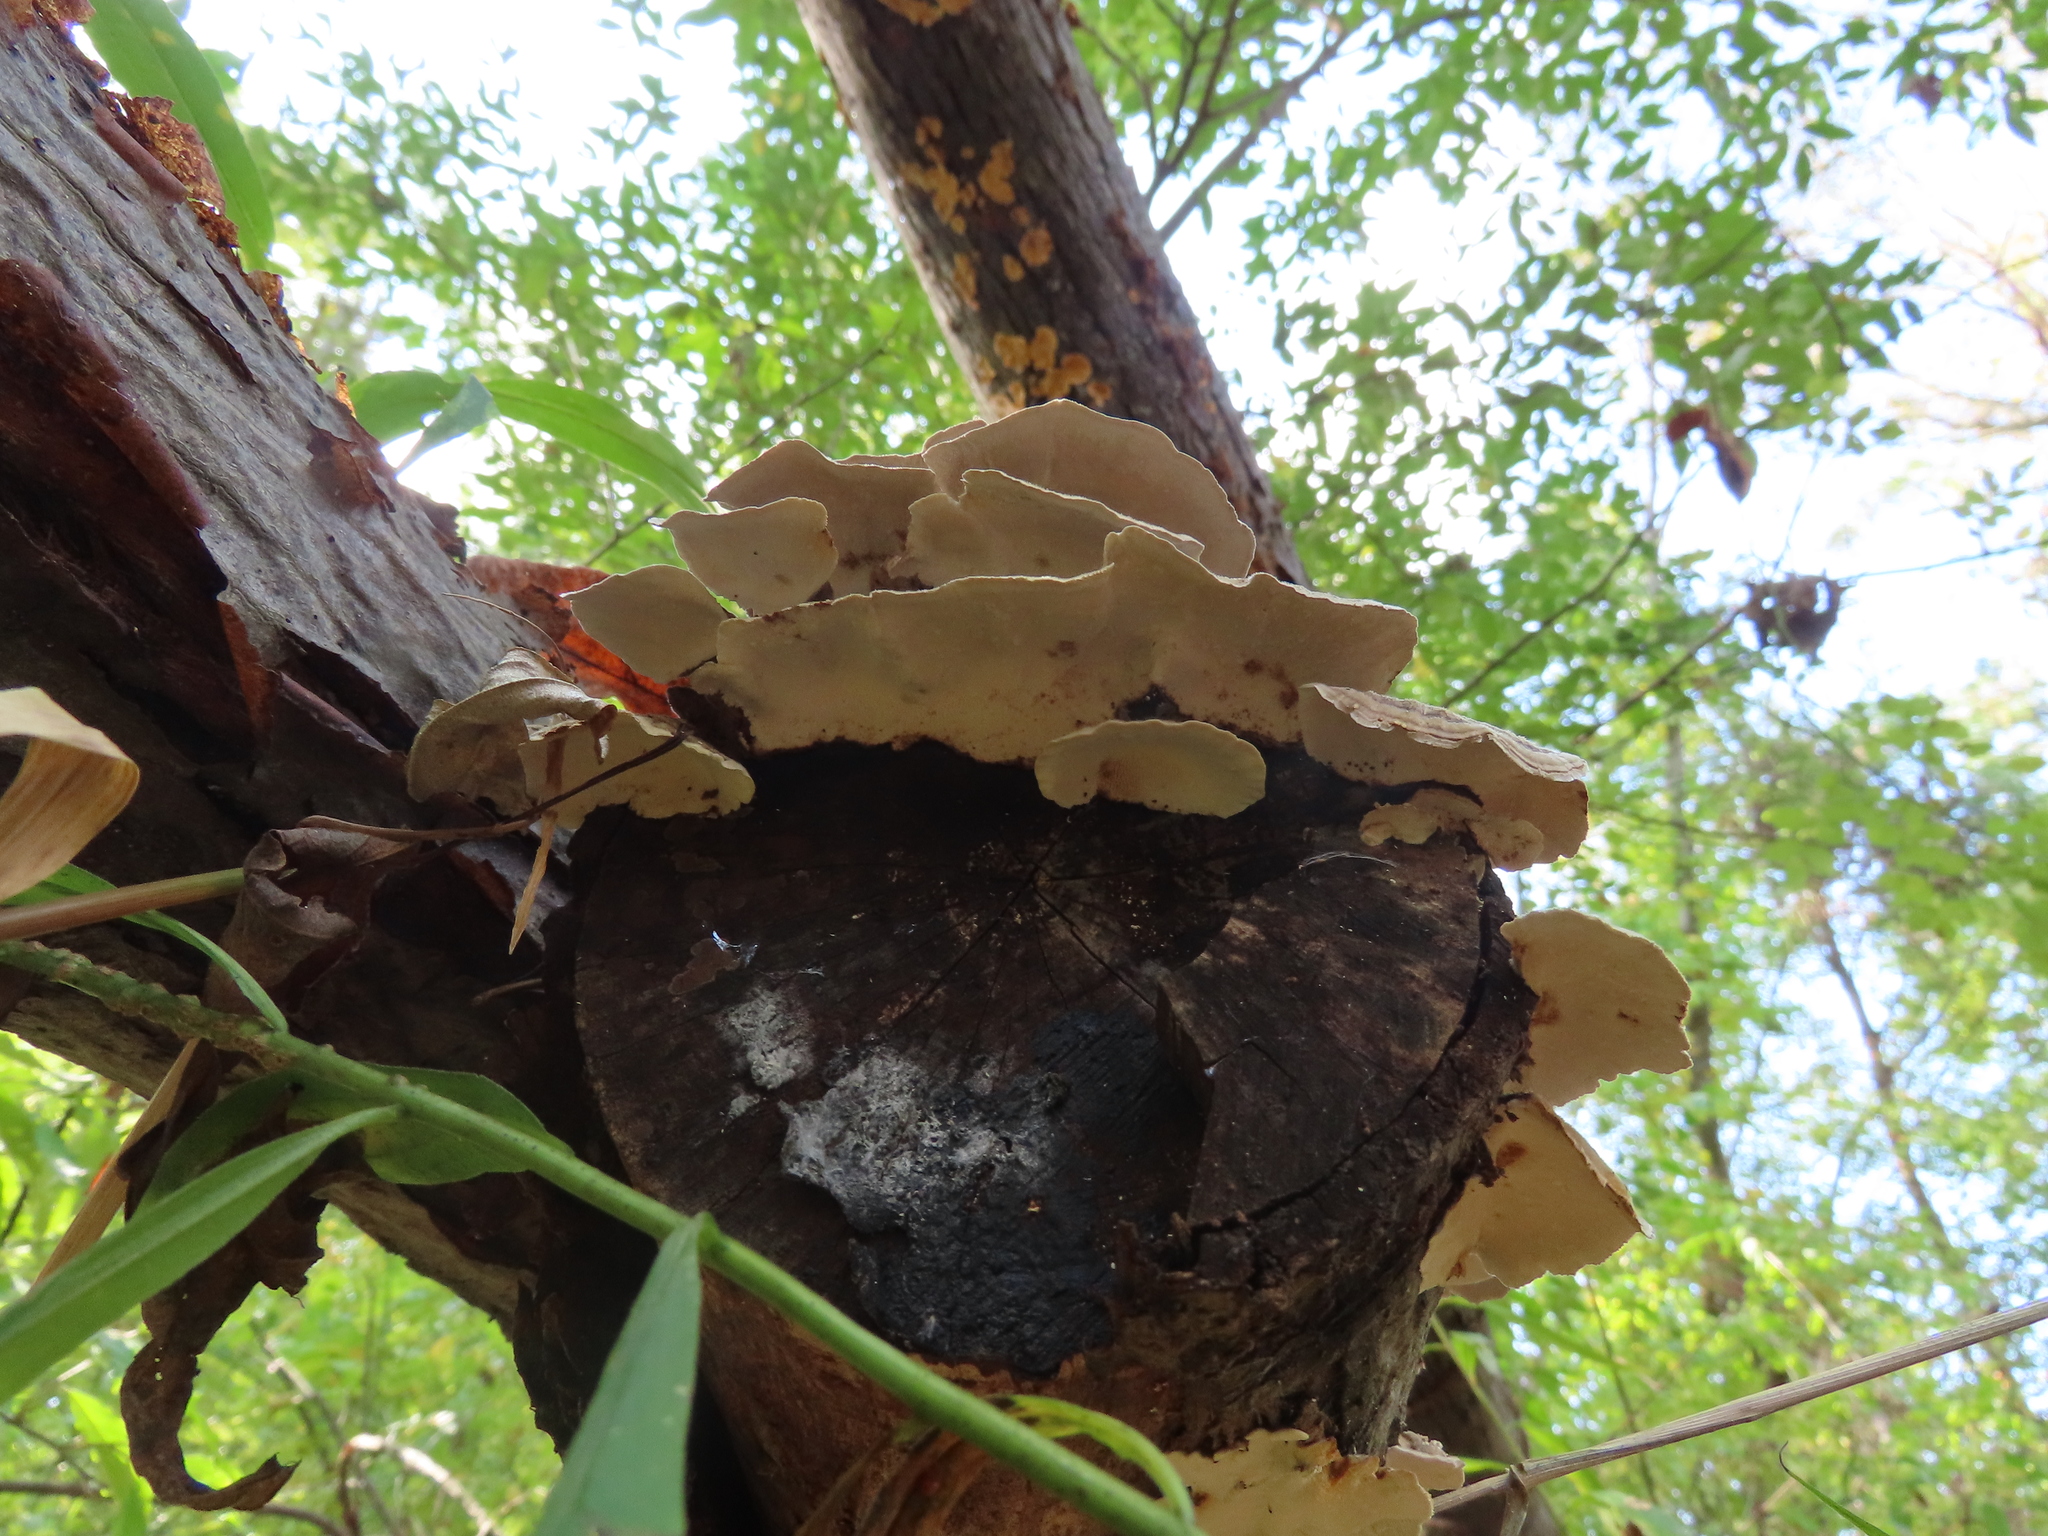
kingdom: Fungi
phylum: Basidiomycota
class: Agaricomycetes
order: Polyporales
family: Polyporaceae
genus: Trametes
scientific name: Trametes versicolor
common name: Turkeytail
